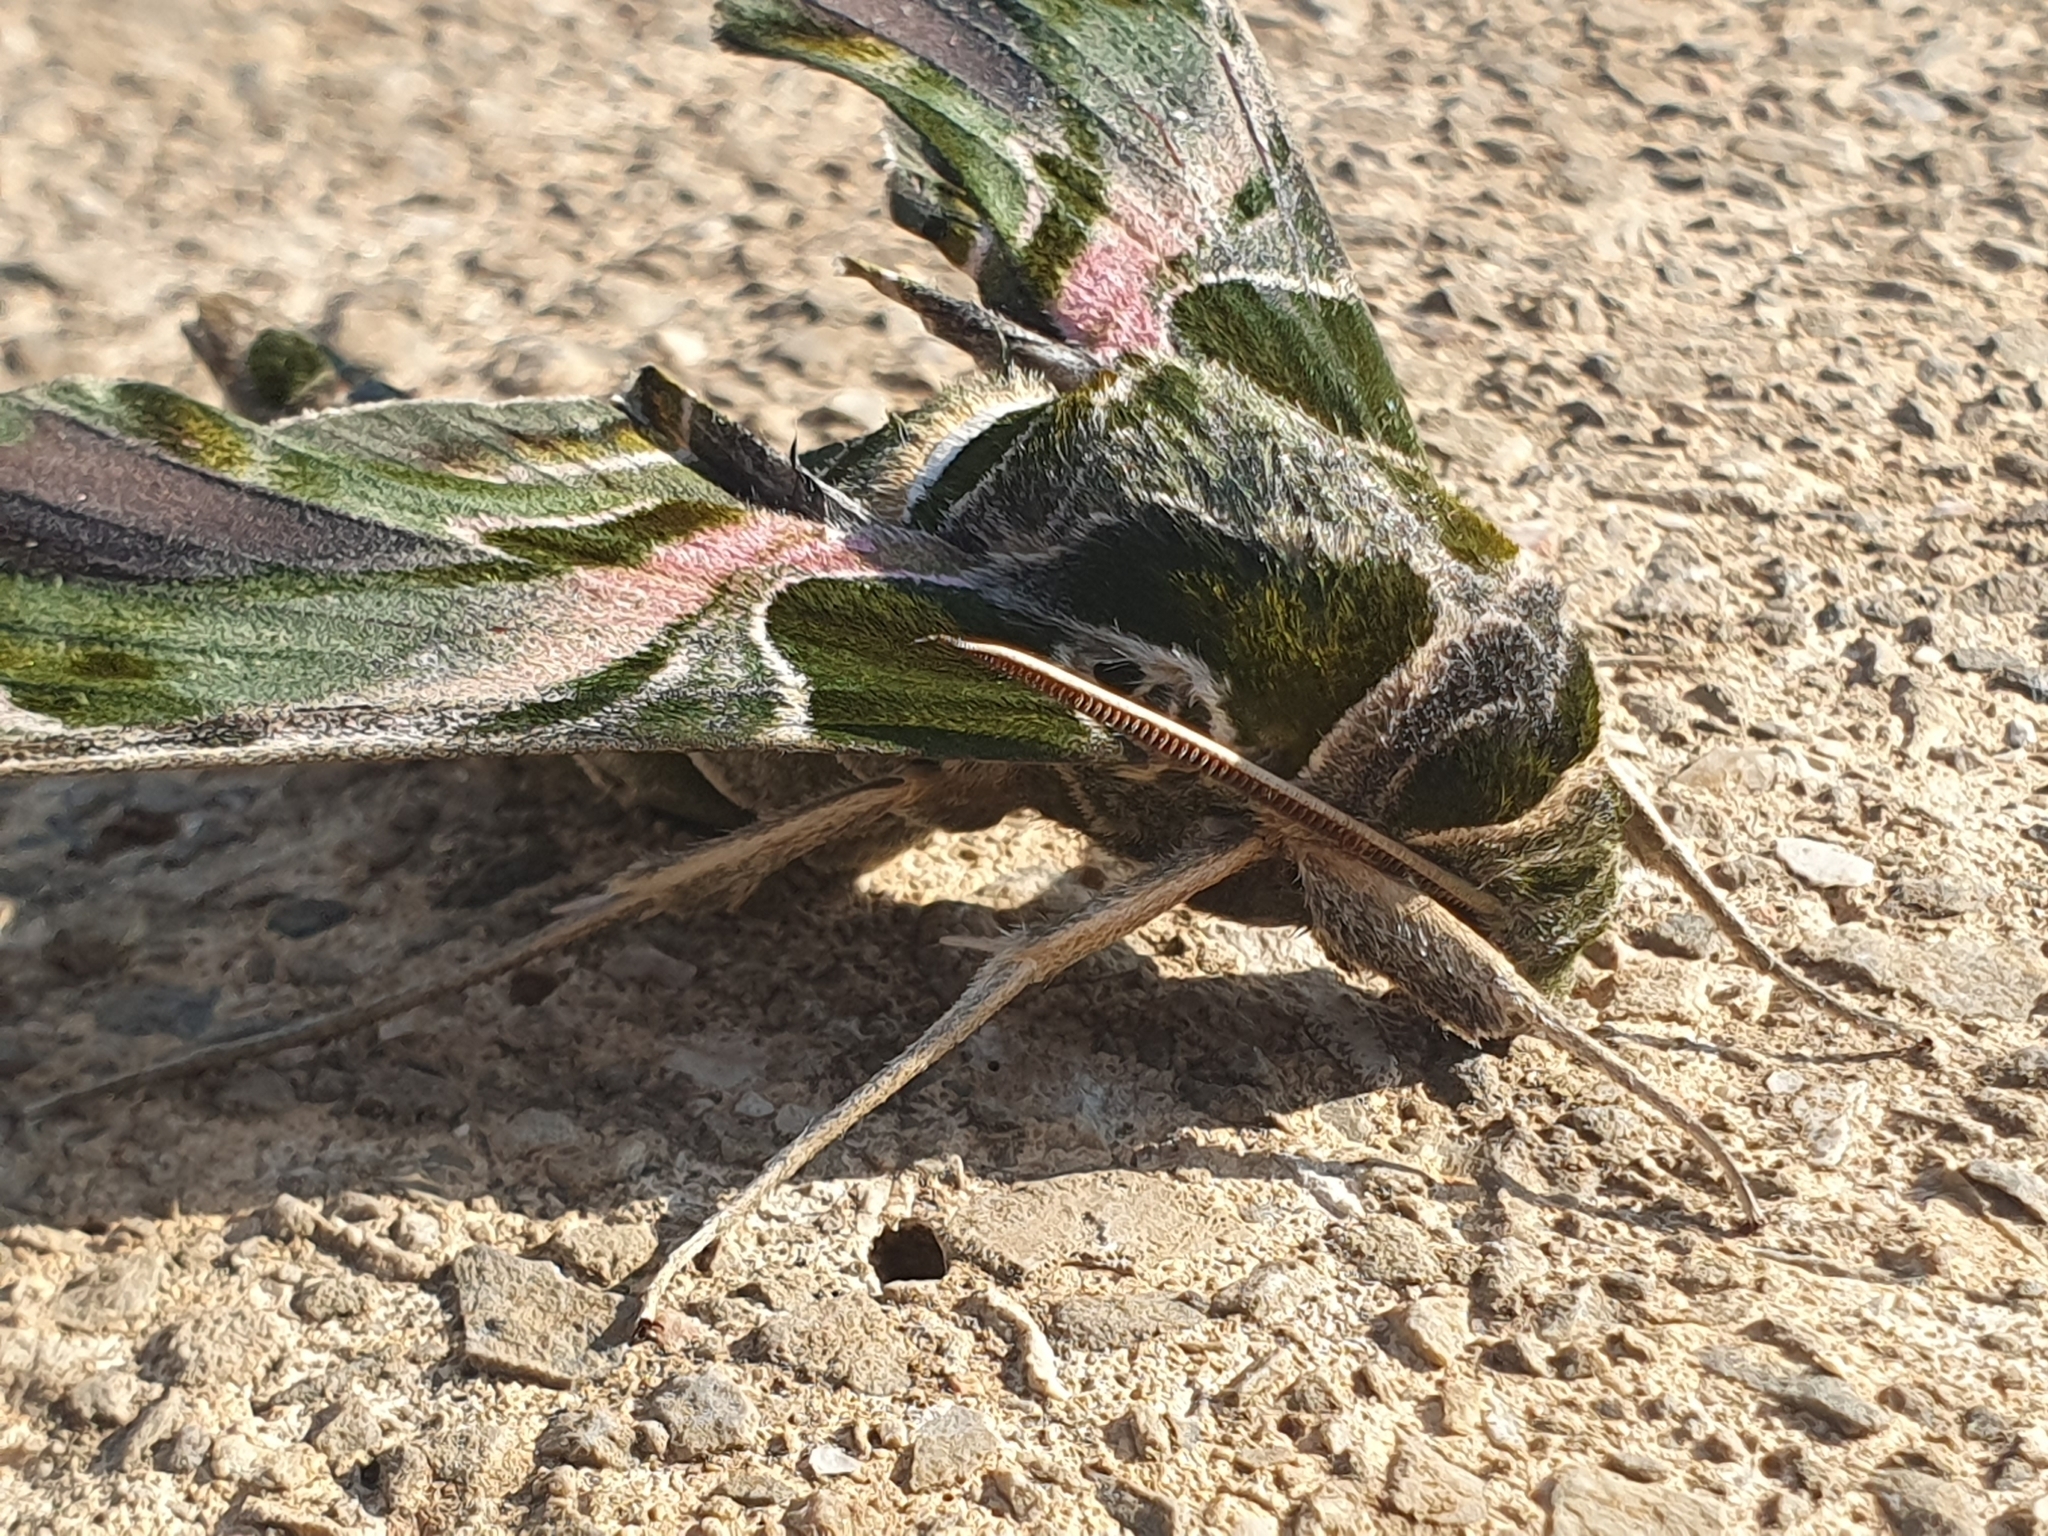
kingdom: Animalia
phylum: Arthropoda
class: Insecta
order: Lepidoptera
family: Sphingidae
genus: Daphnis
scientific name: Daphnis nerii
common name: Oleander hawk-moth
